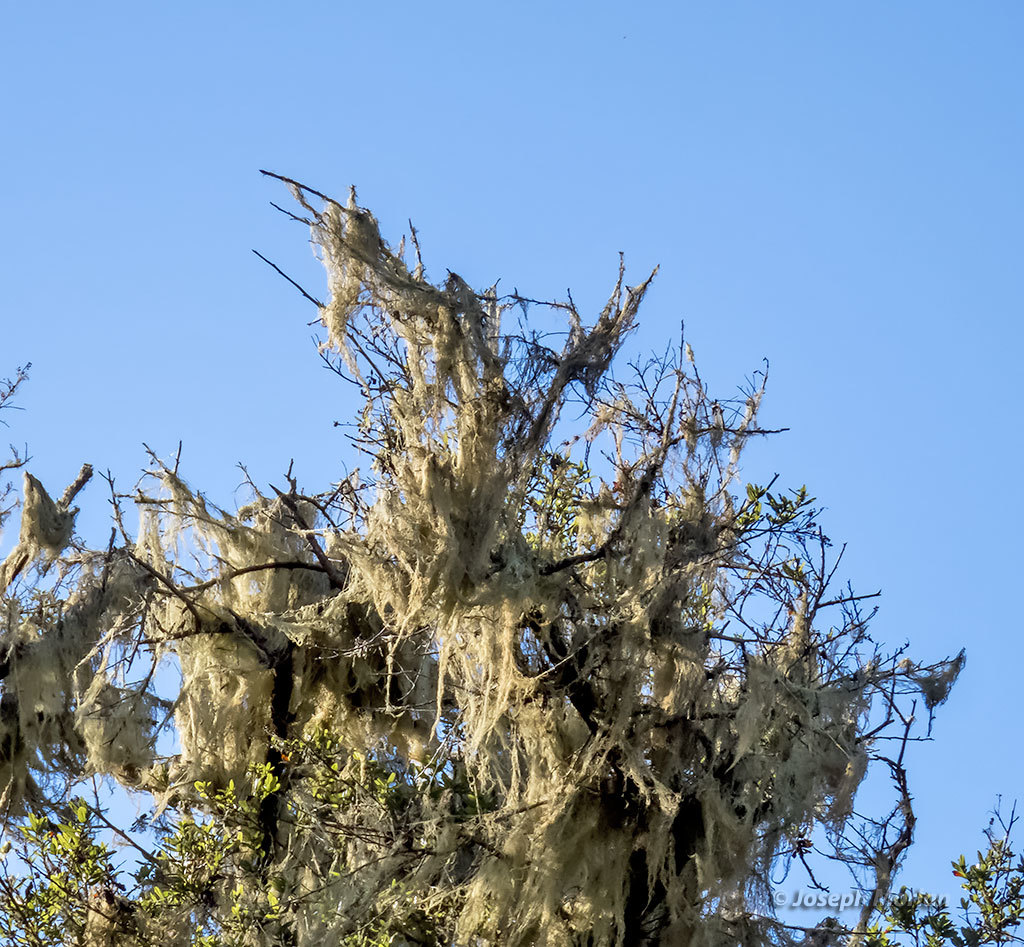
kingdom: Fungi
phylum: Ascomycota
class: Lecanoromycetes
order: Lecanorales
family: Ramalinaceae
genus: Ramalina
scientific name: Ramalina menziesii
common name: Lace lichen
